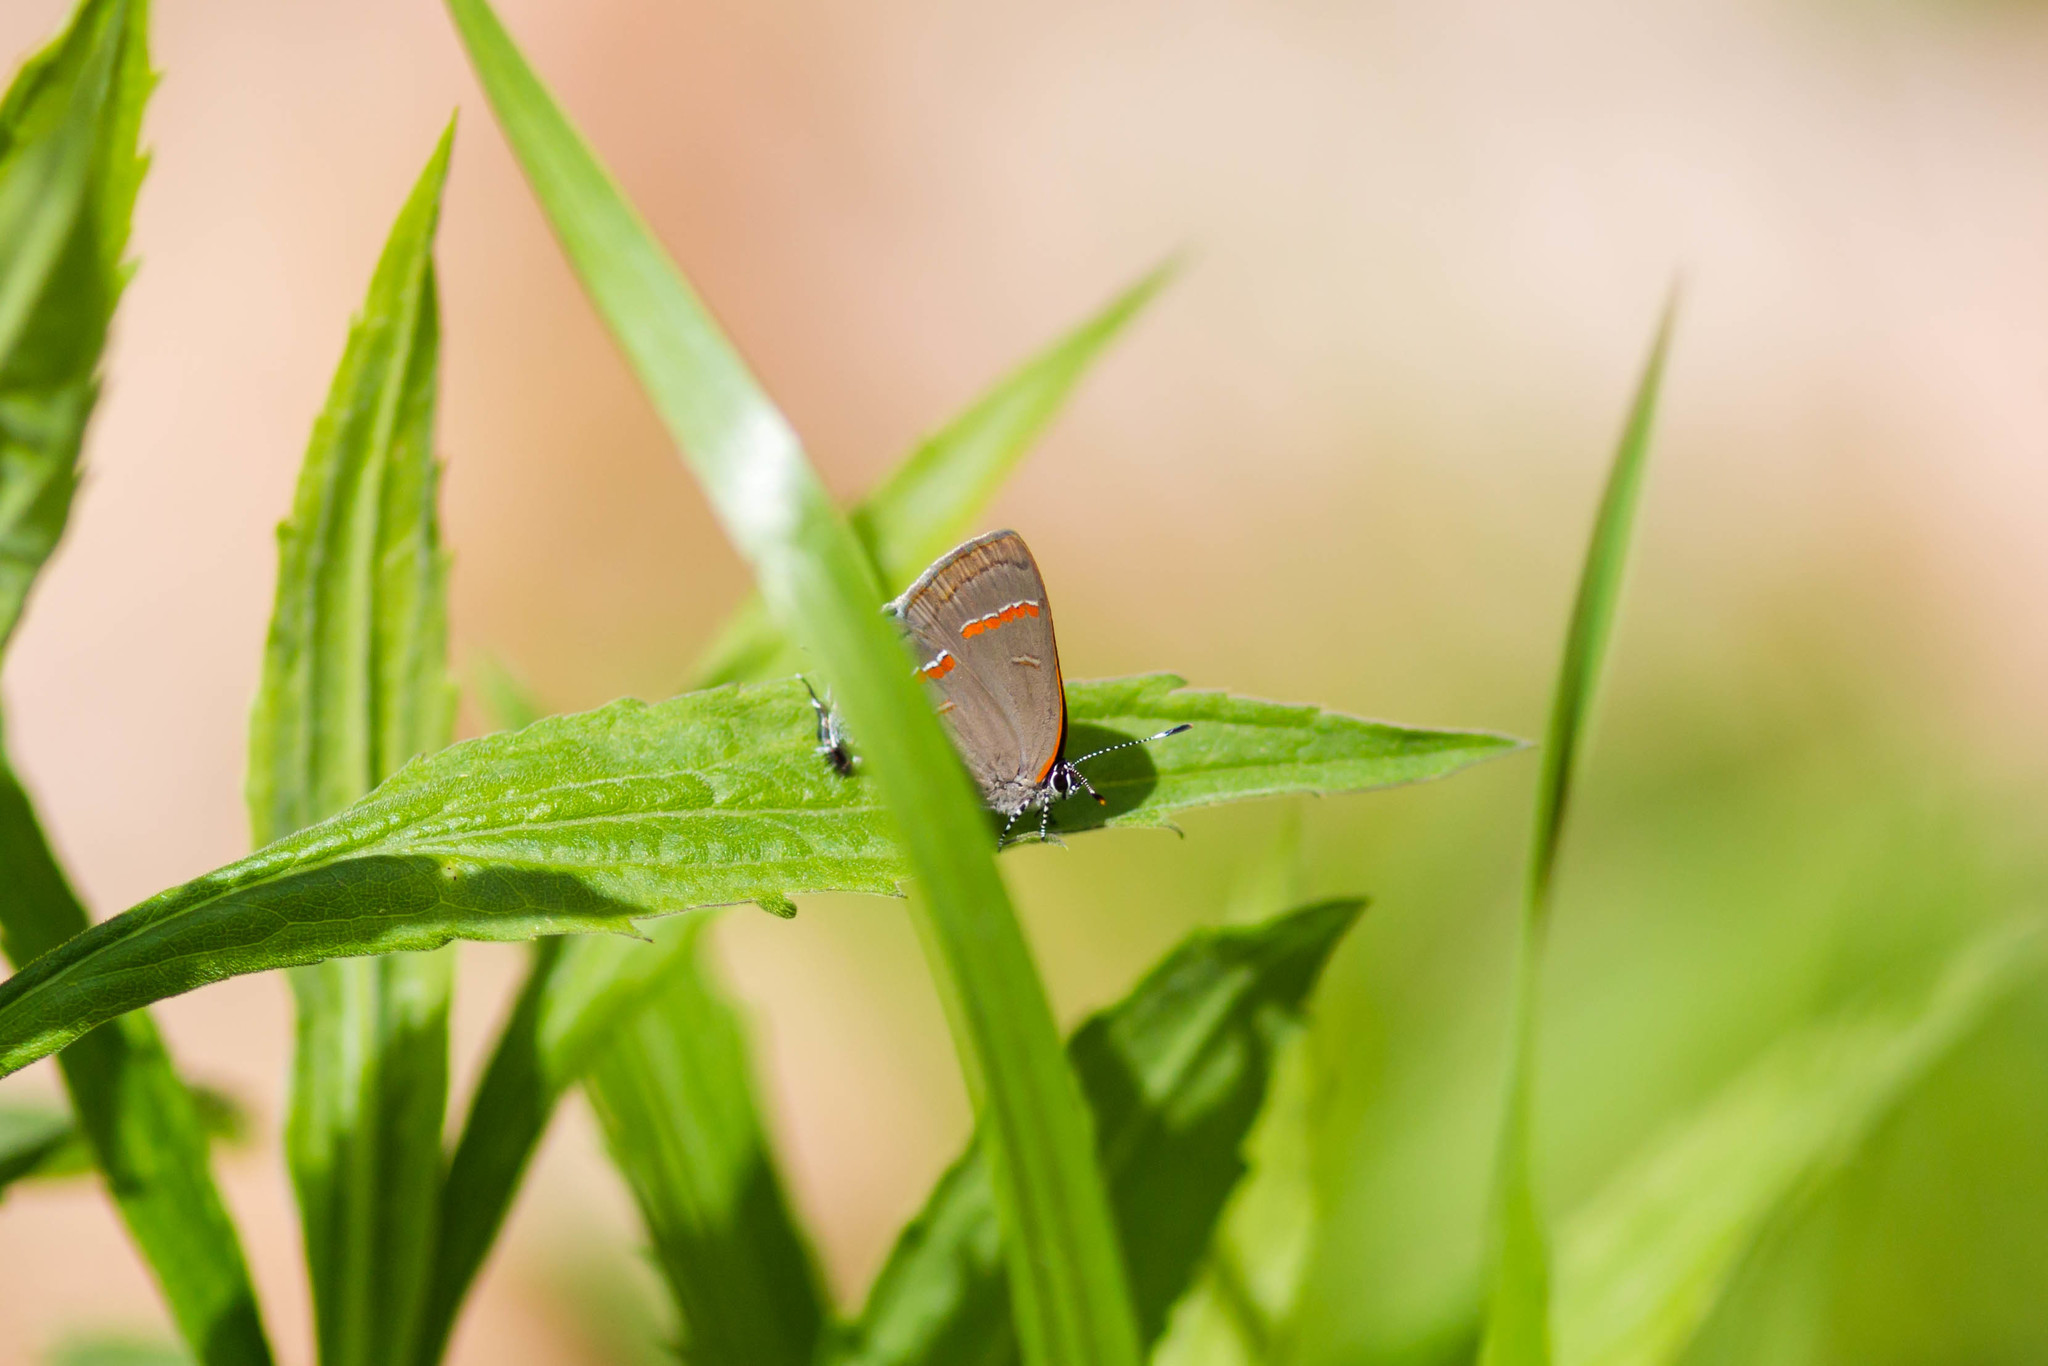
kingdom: Animalia
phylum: Arthropoda
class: Insecta
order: Lepidoptera
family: Lycaenidae
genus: Calycopis
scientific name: Calycopis cecrops
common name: Red-banded hairstreak
